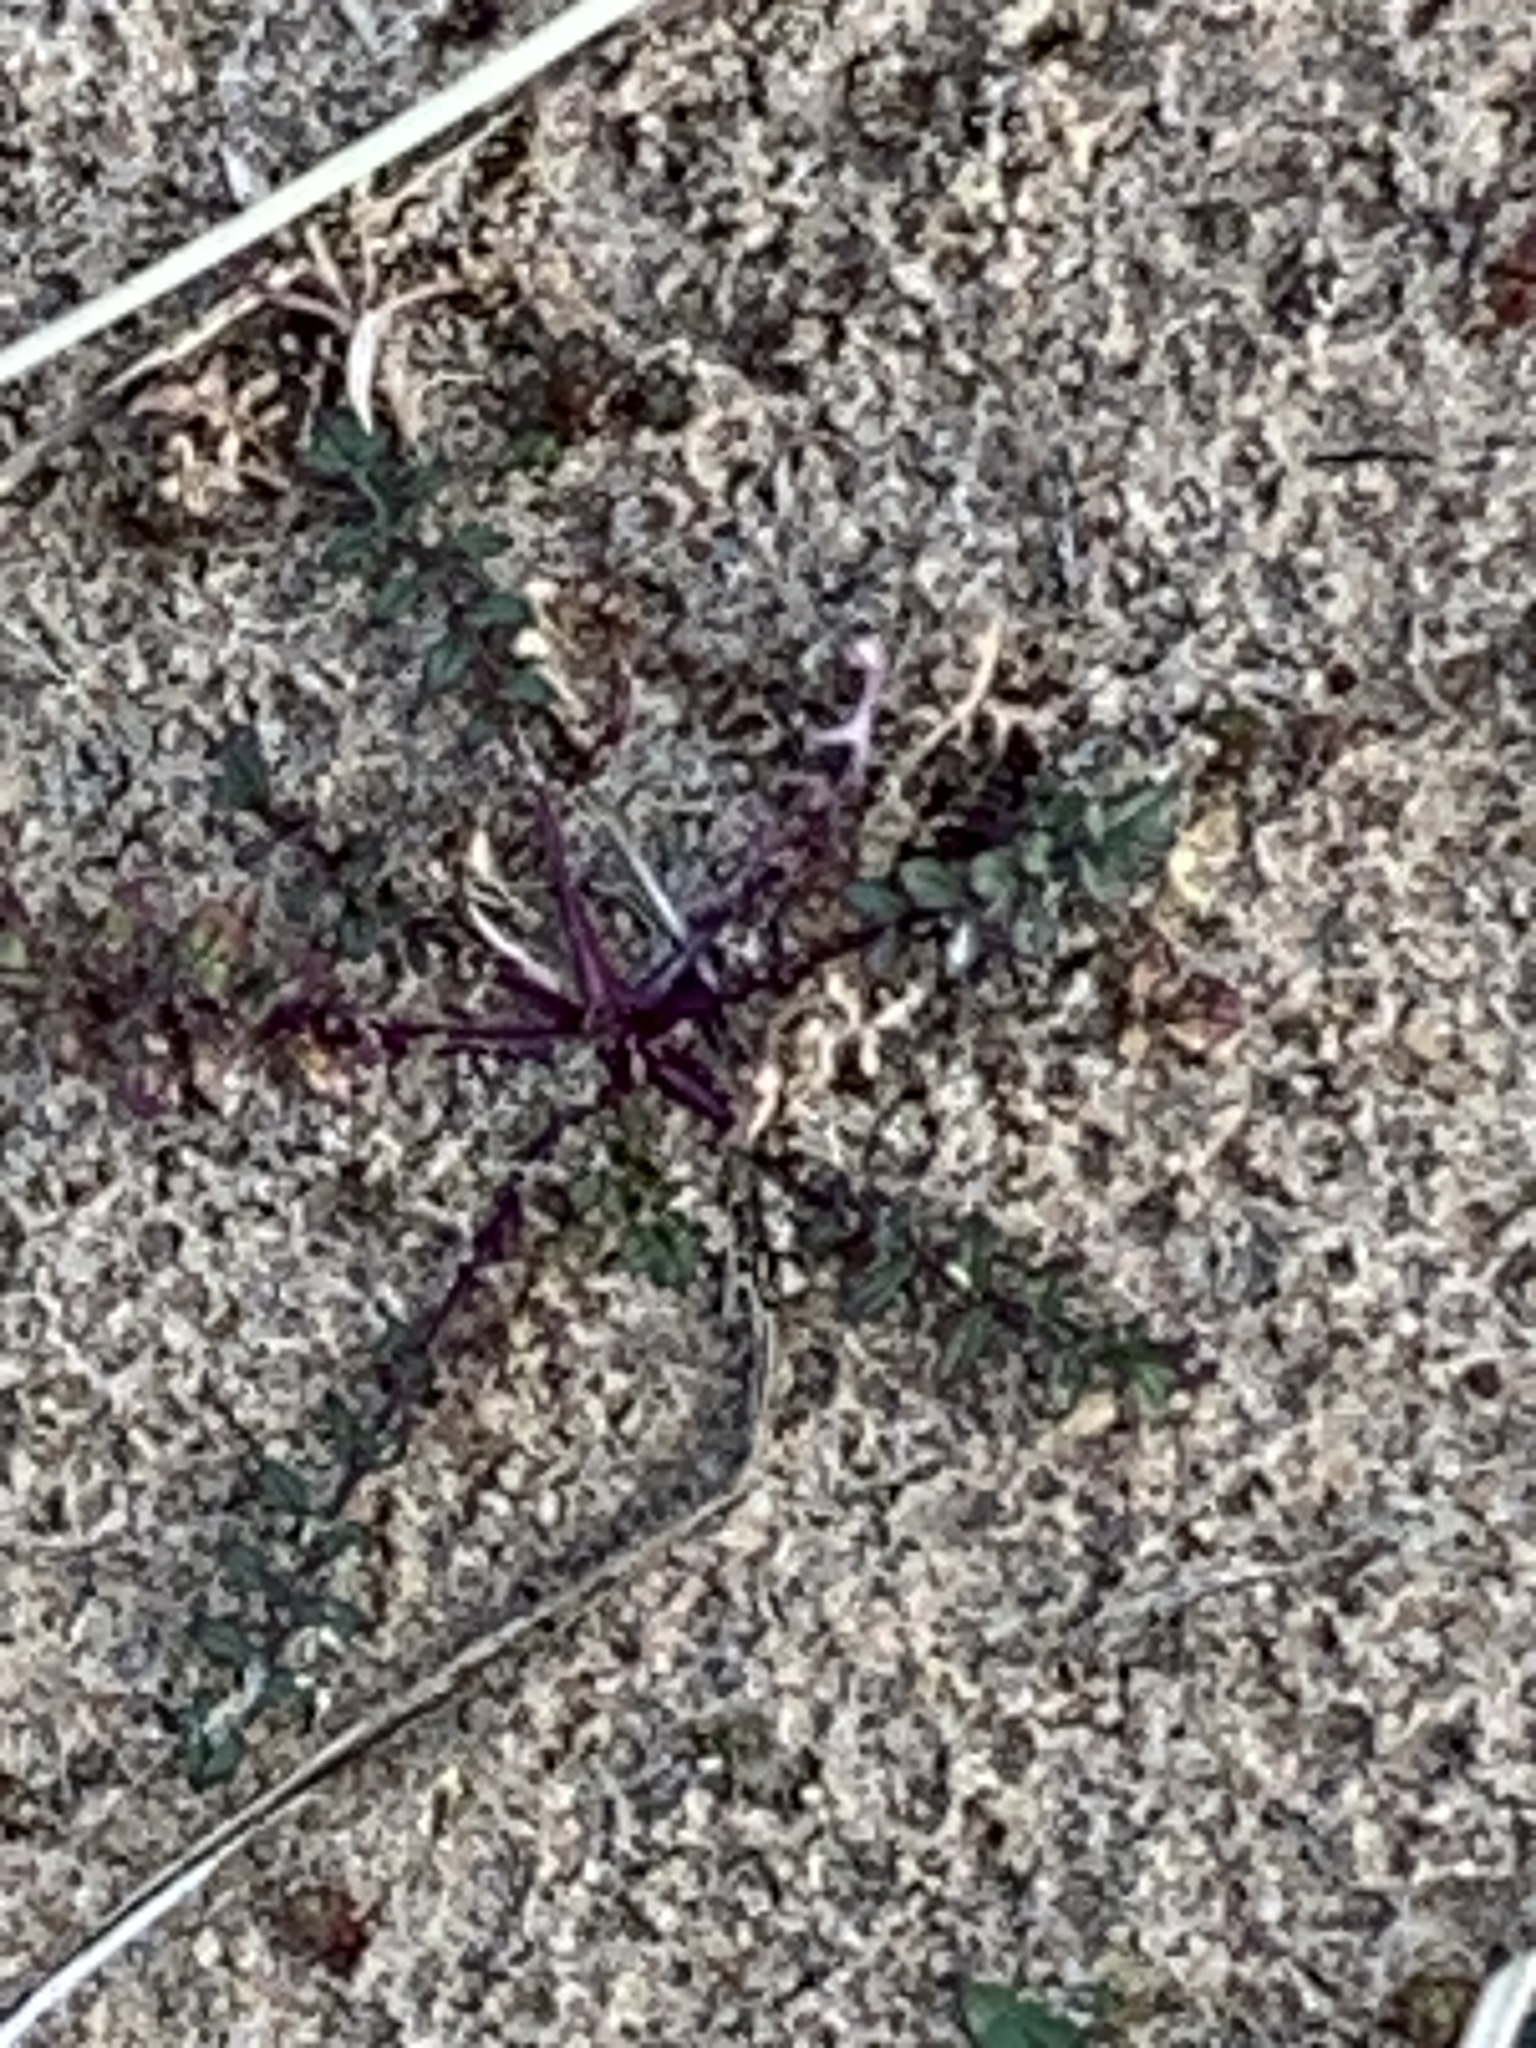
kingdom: Plantae
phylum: Tracheophyta
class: Magnoliopsida
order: Brassicales
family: Brassicaceae
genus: Coincya
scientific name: Coincya monensis
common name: Star-mustard
